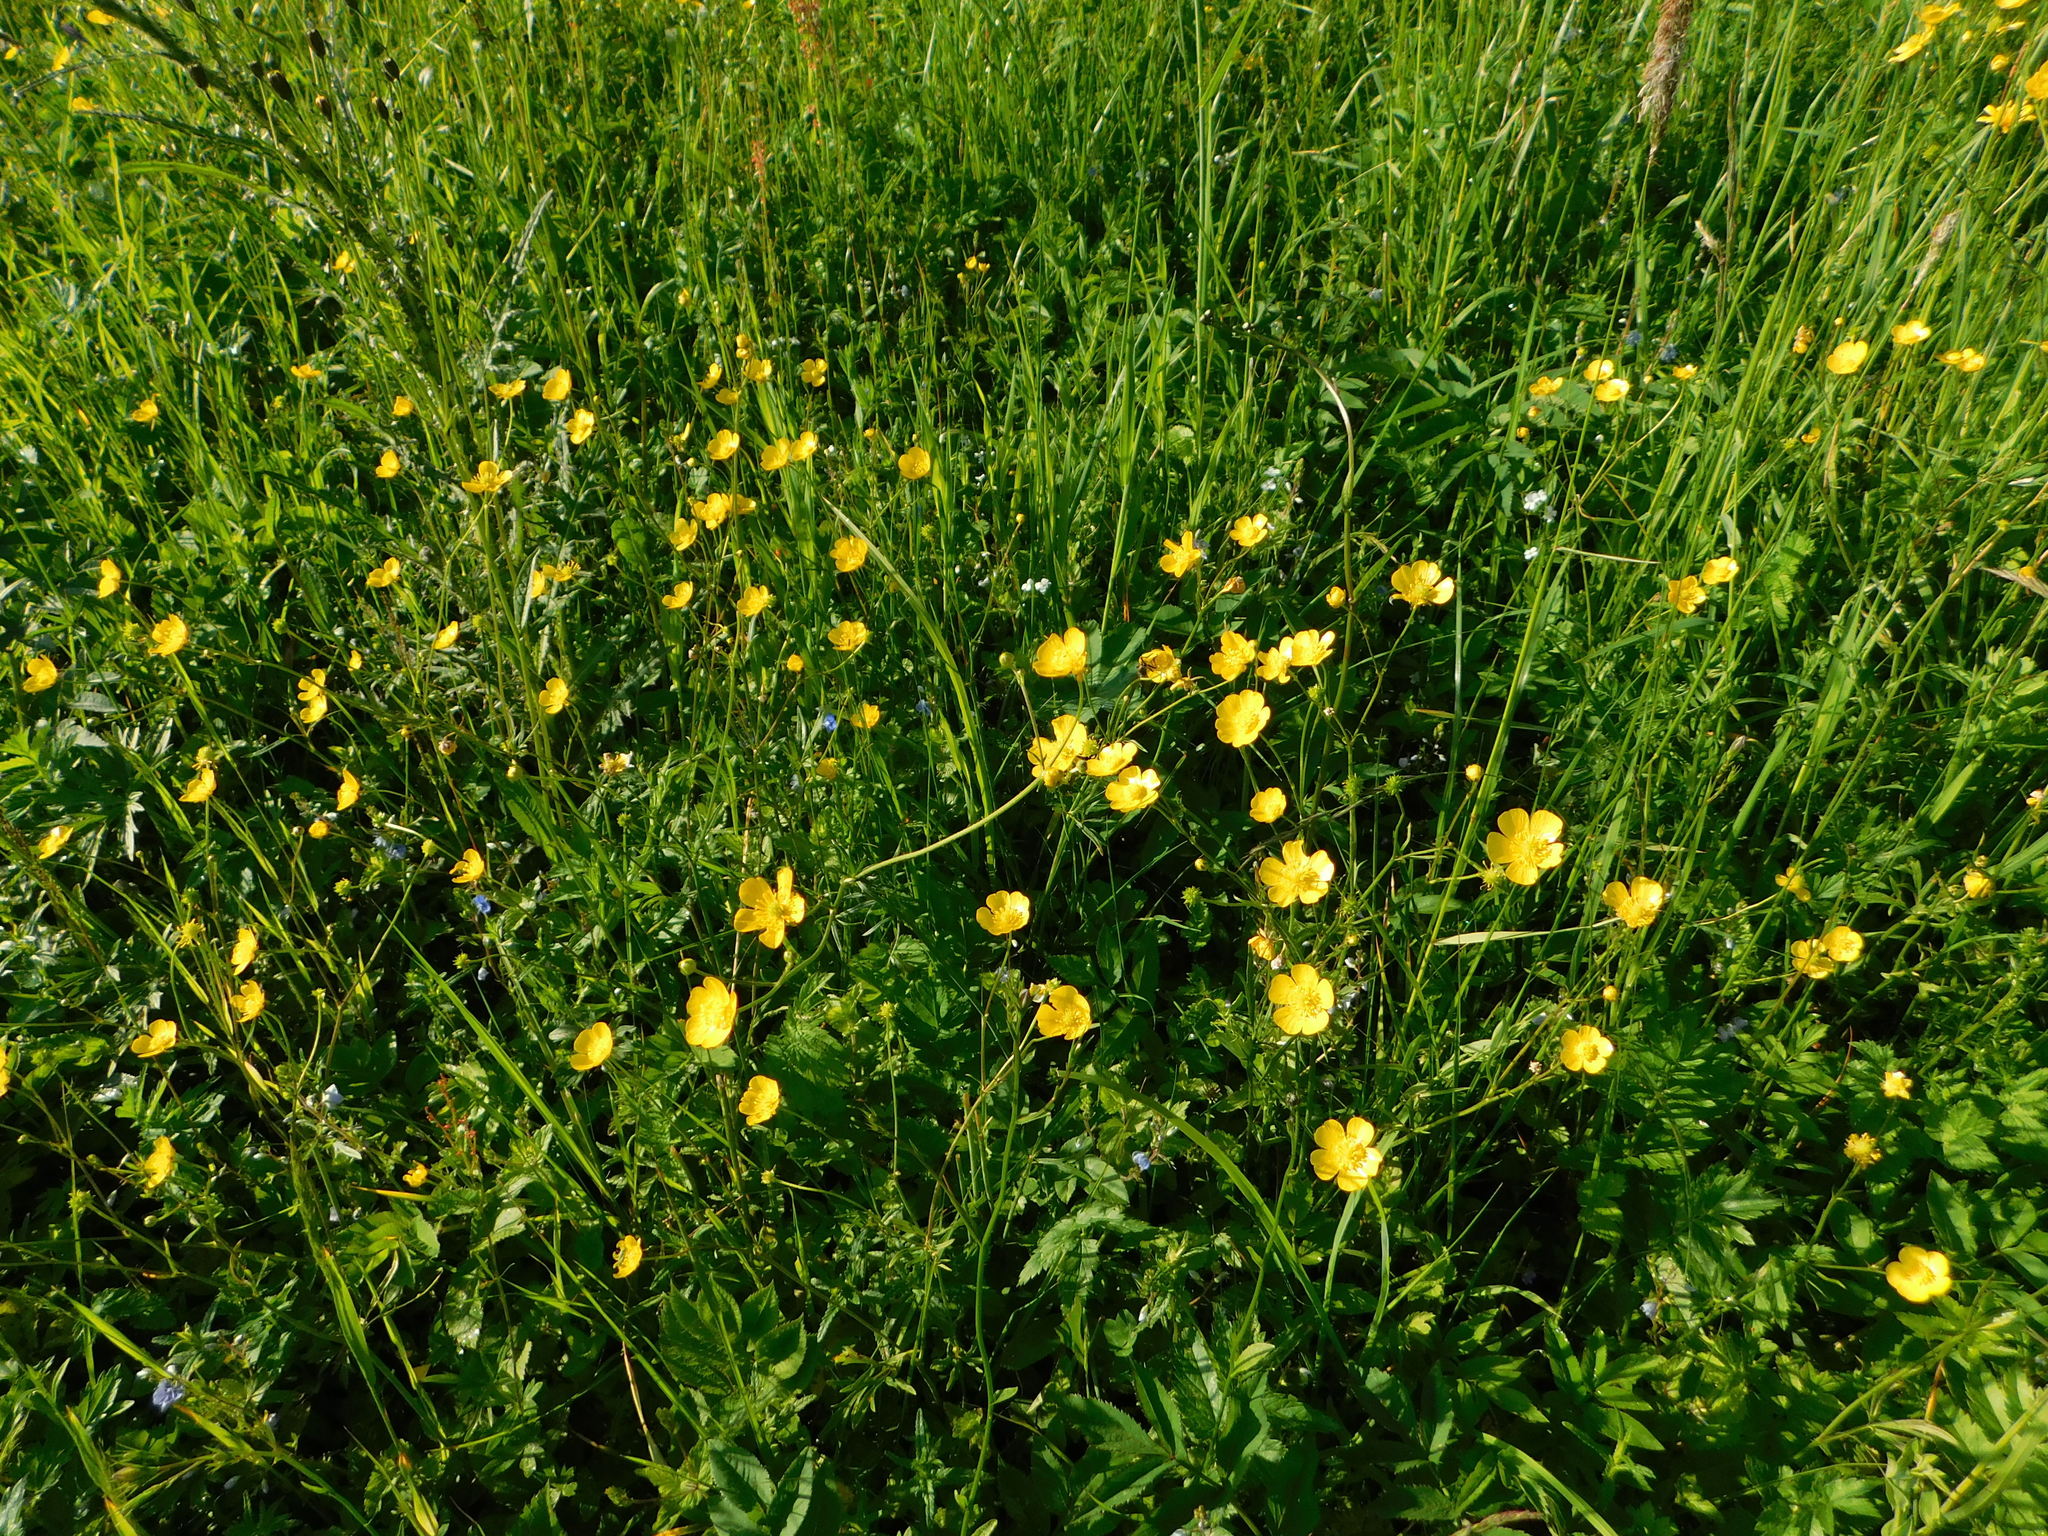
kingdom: Plantae
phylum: Tracheophyta
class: Magnoliopsida
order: Ranunculales
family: Ranunculaceae
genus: Ranunculus
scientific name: Ranunculus acris
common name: Meadow buttercup
